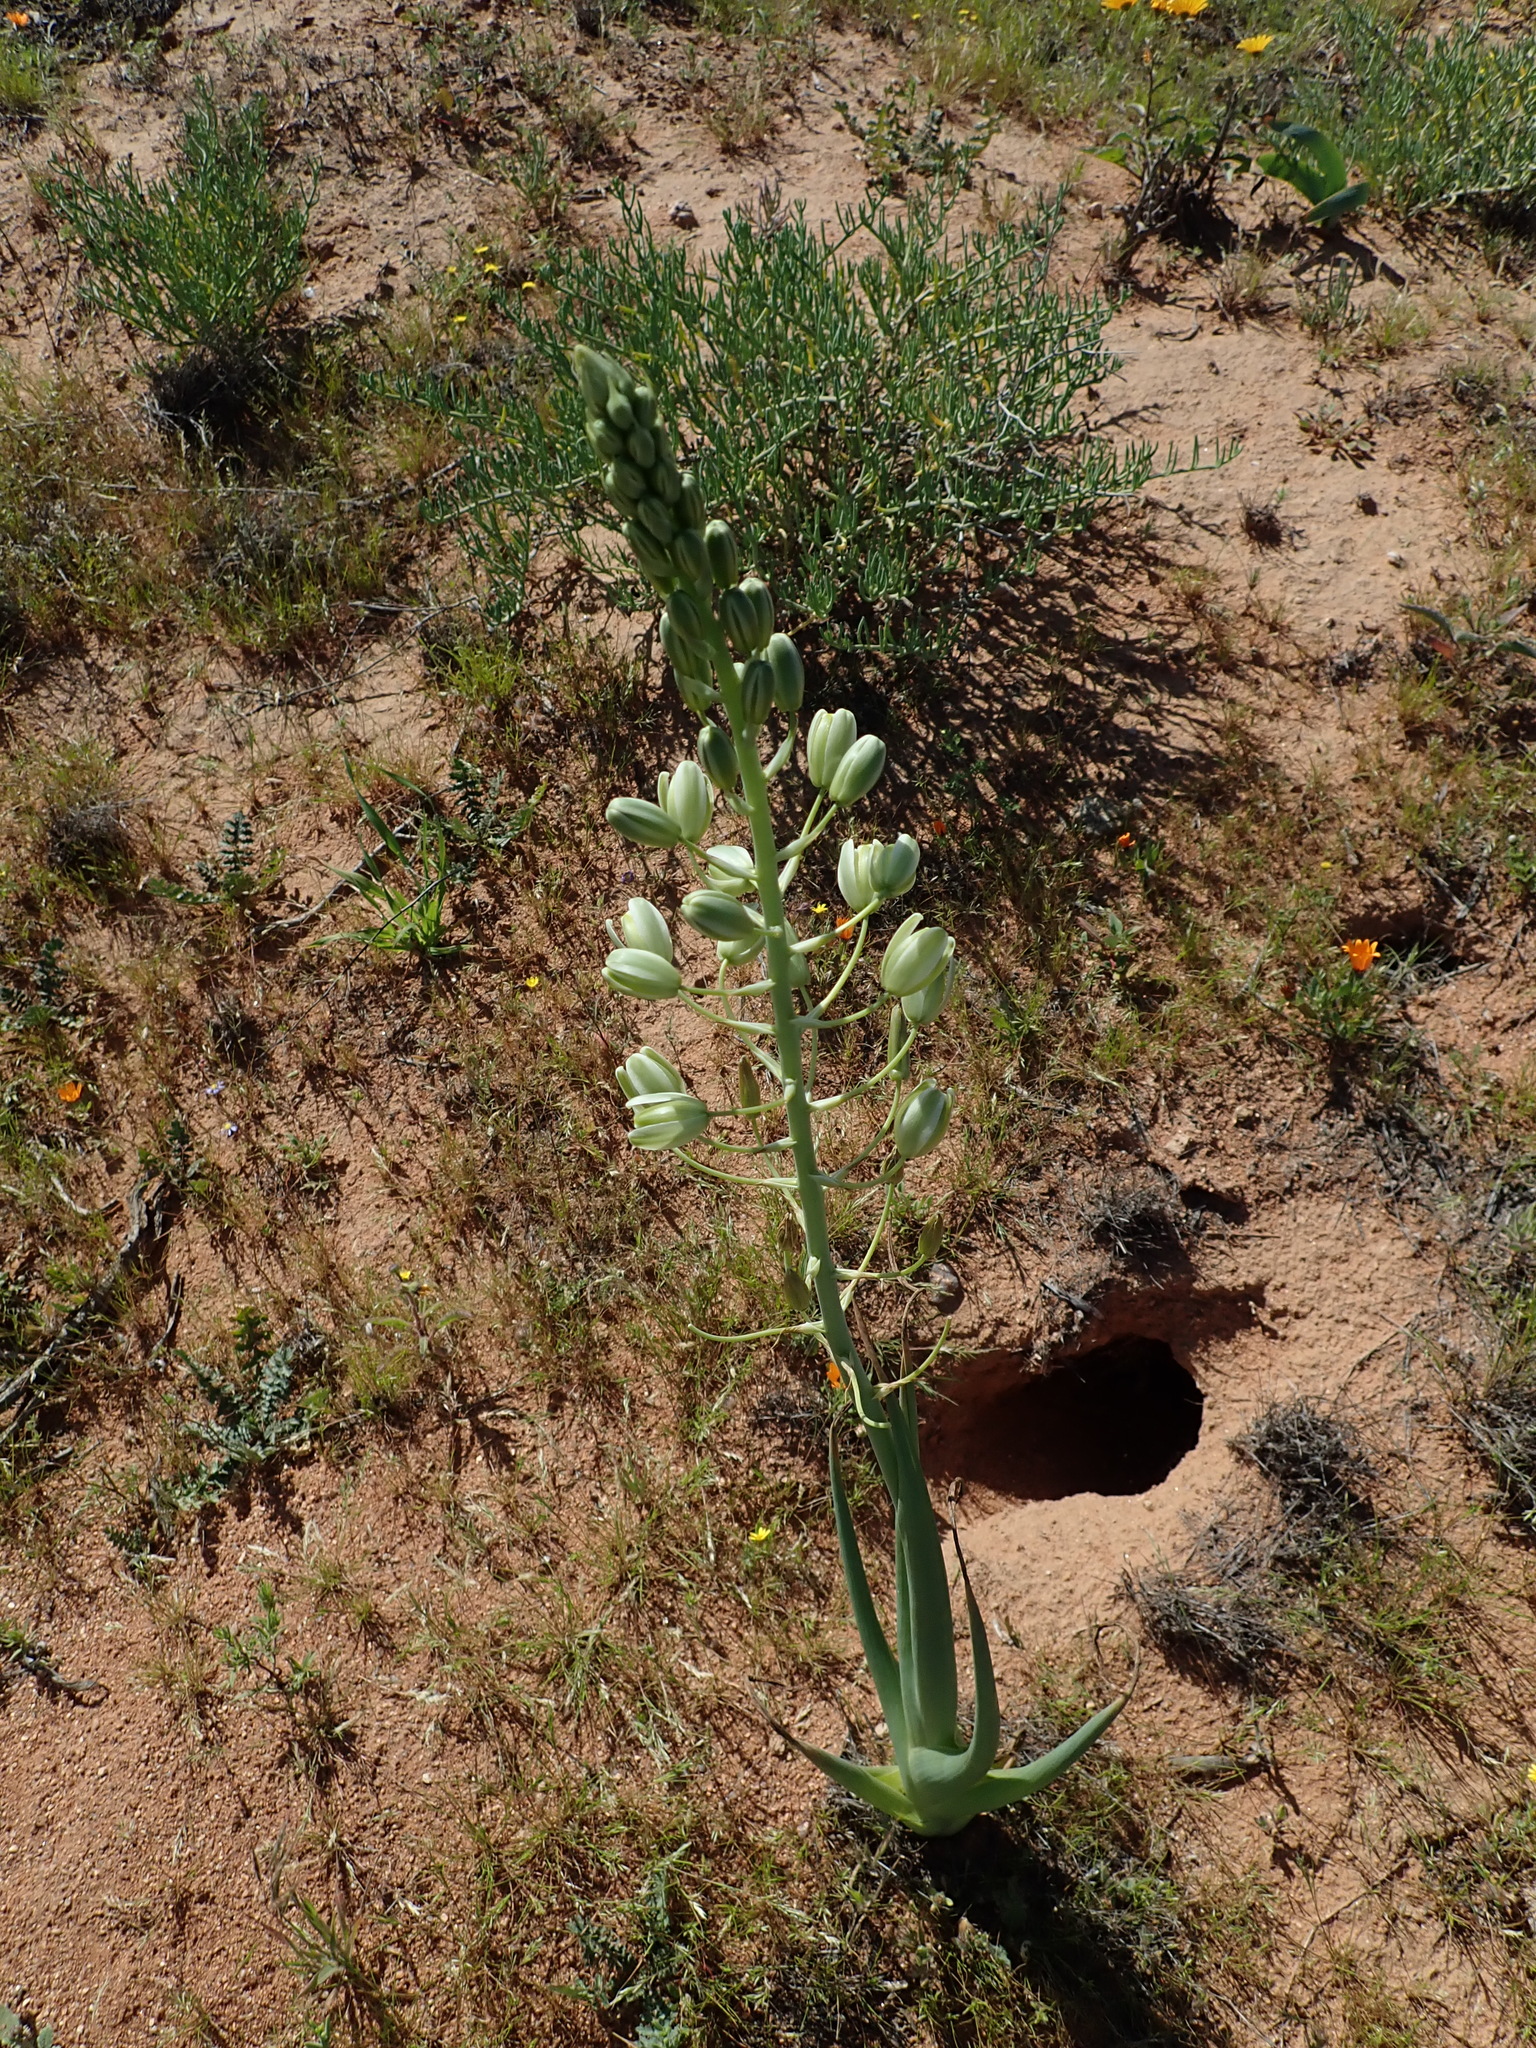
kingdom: Plantae
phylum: Tracheophyta
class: Liliopsida
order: Asparagales
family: Asparagaceae
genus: Albuca
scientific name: Albuca canadensis
